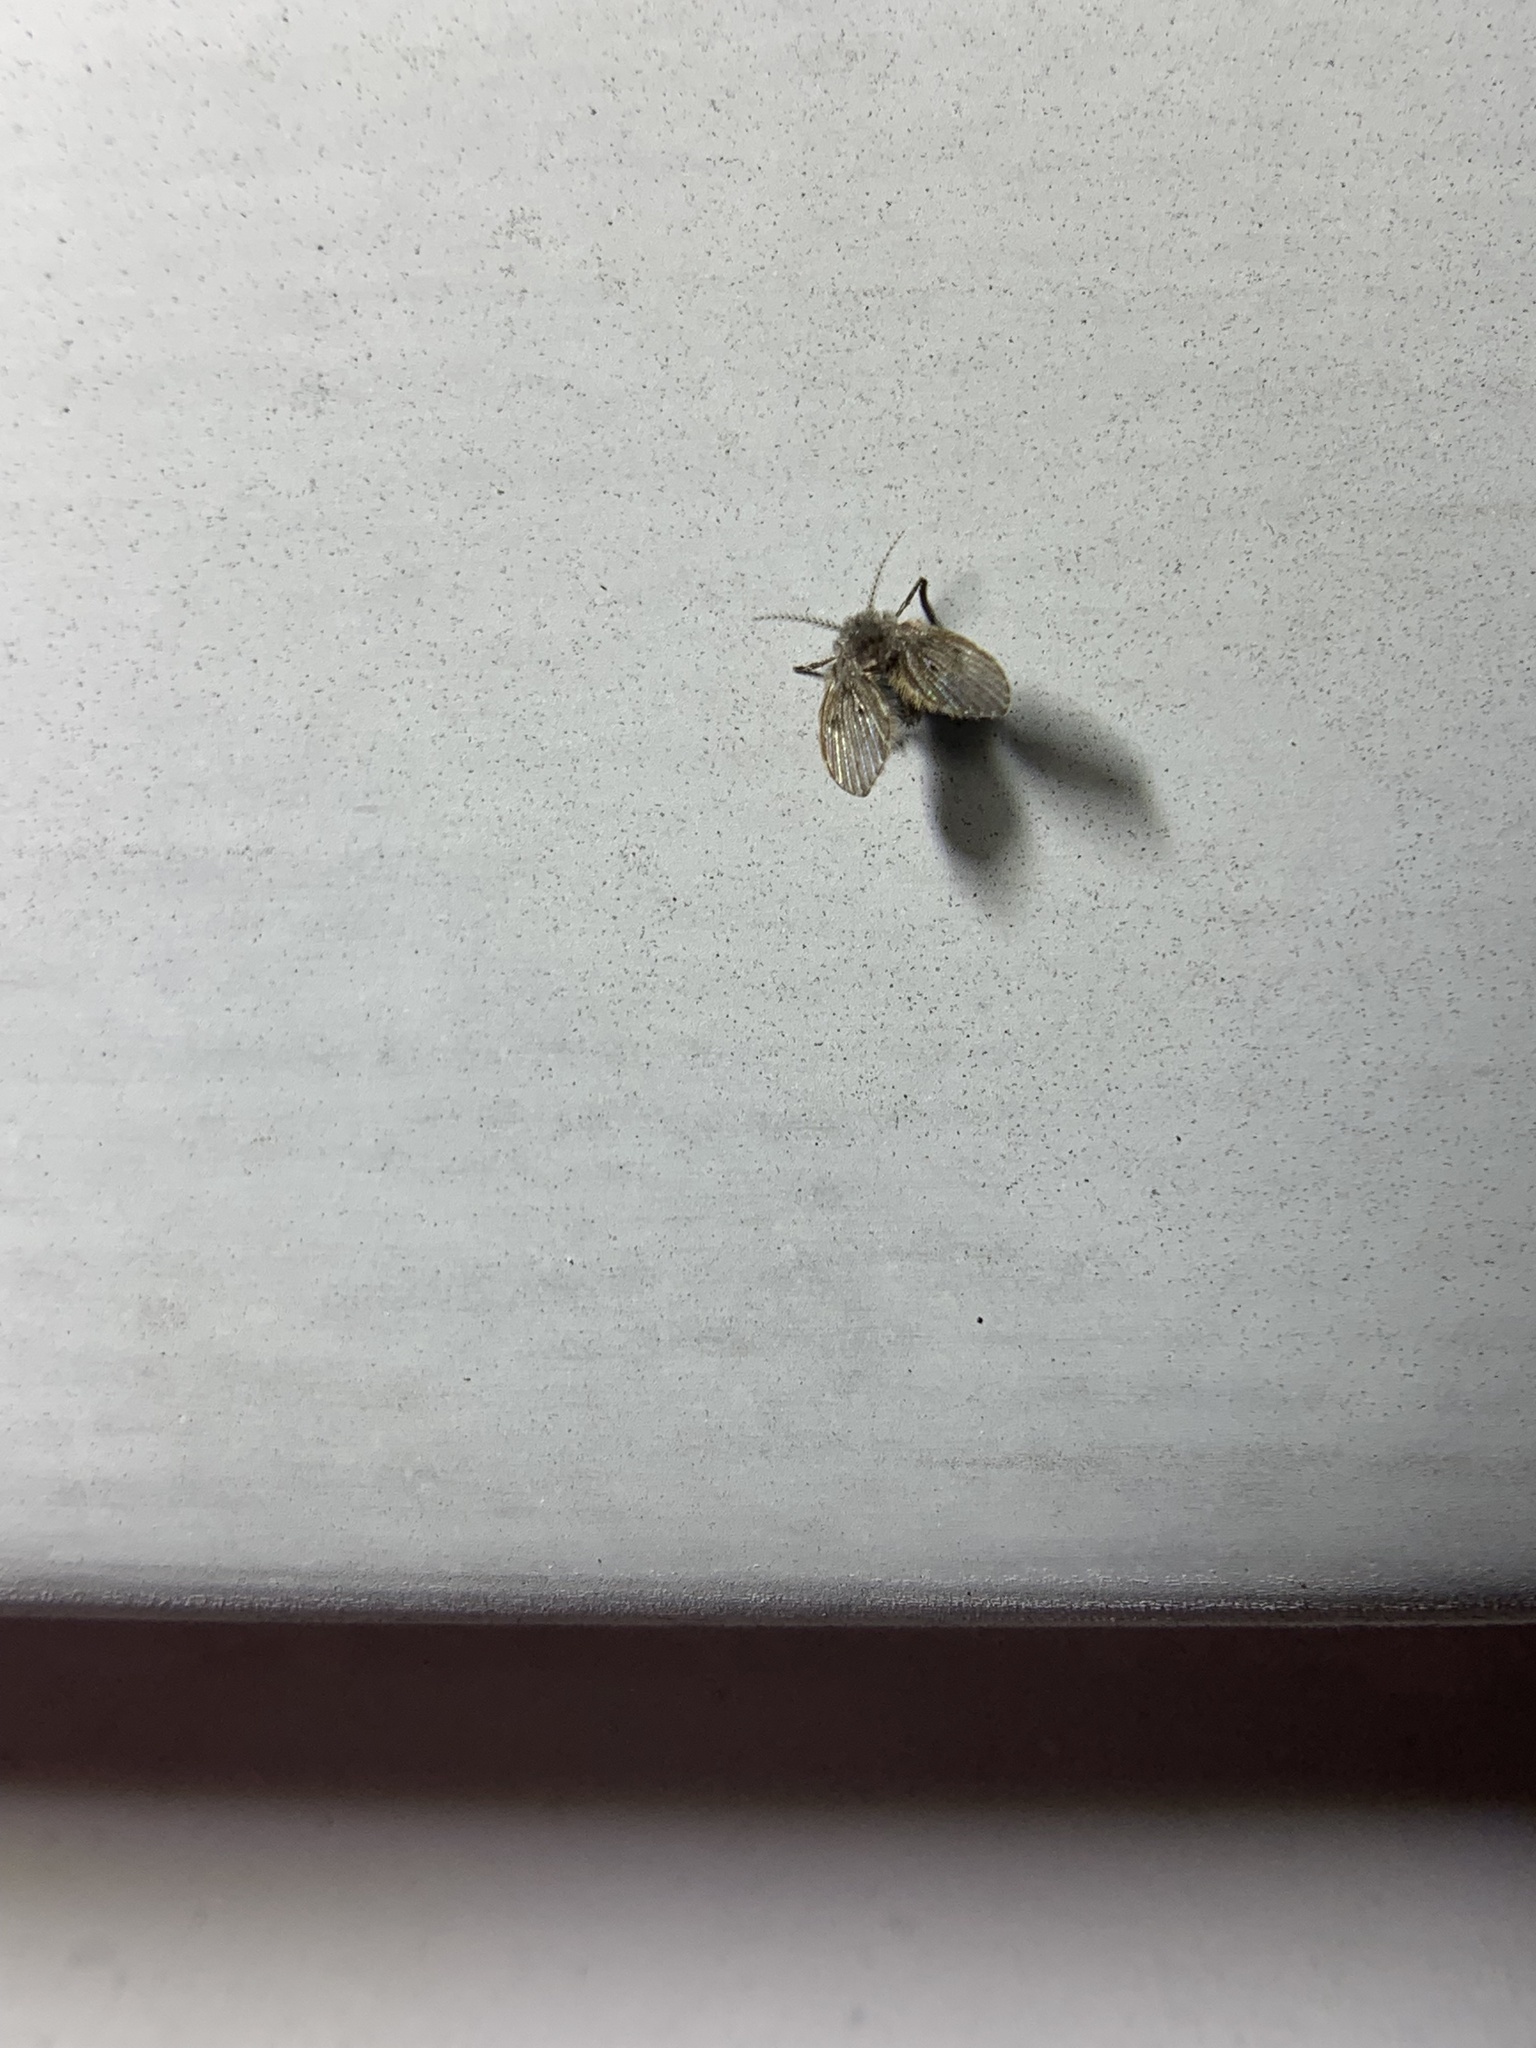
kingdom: Animalia
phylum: Arthropoda
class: Insecta
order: Diptera
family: Psychodidae
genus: Clogmia
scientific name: Clogmia albipunctatus
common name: White-spotted moth fly
